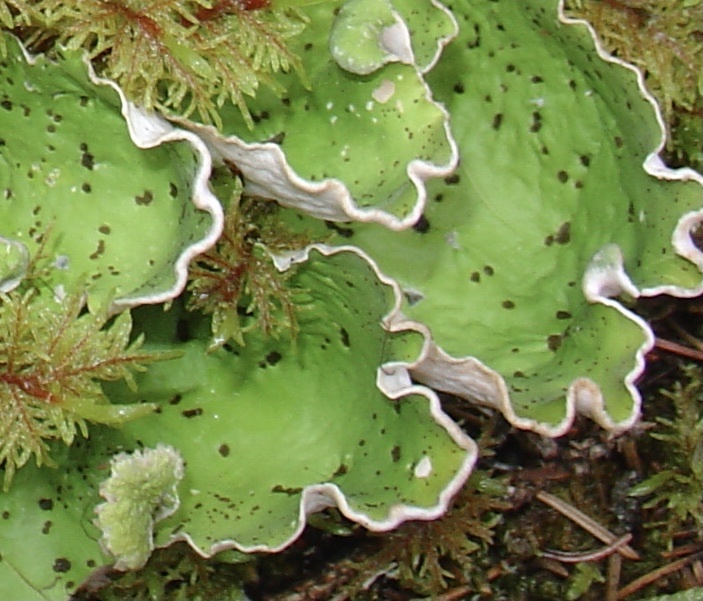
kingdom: Fungi
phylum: Ascomycota
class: Lecanoromycetes
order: Peltigerales
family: Peltigeraceae
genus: Peltigera
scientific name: Peltigera aphthosa
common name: Common freckle pelt lichen
